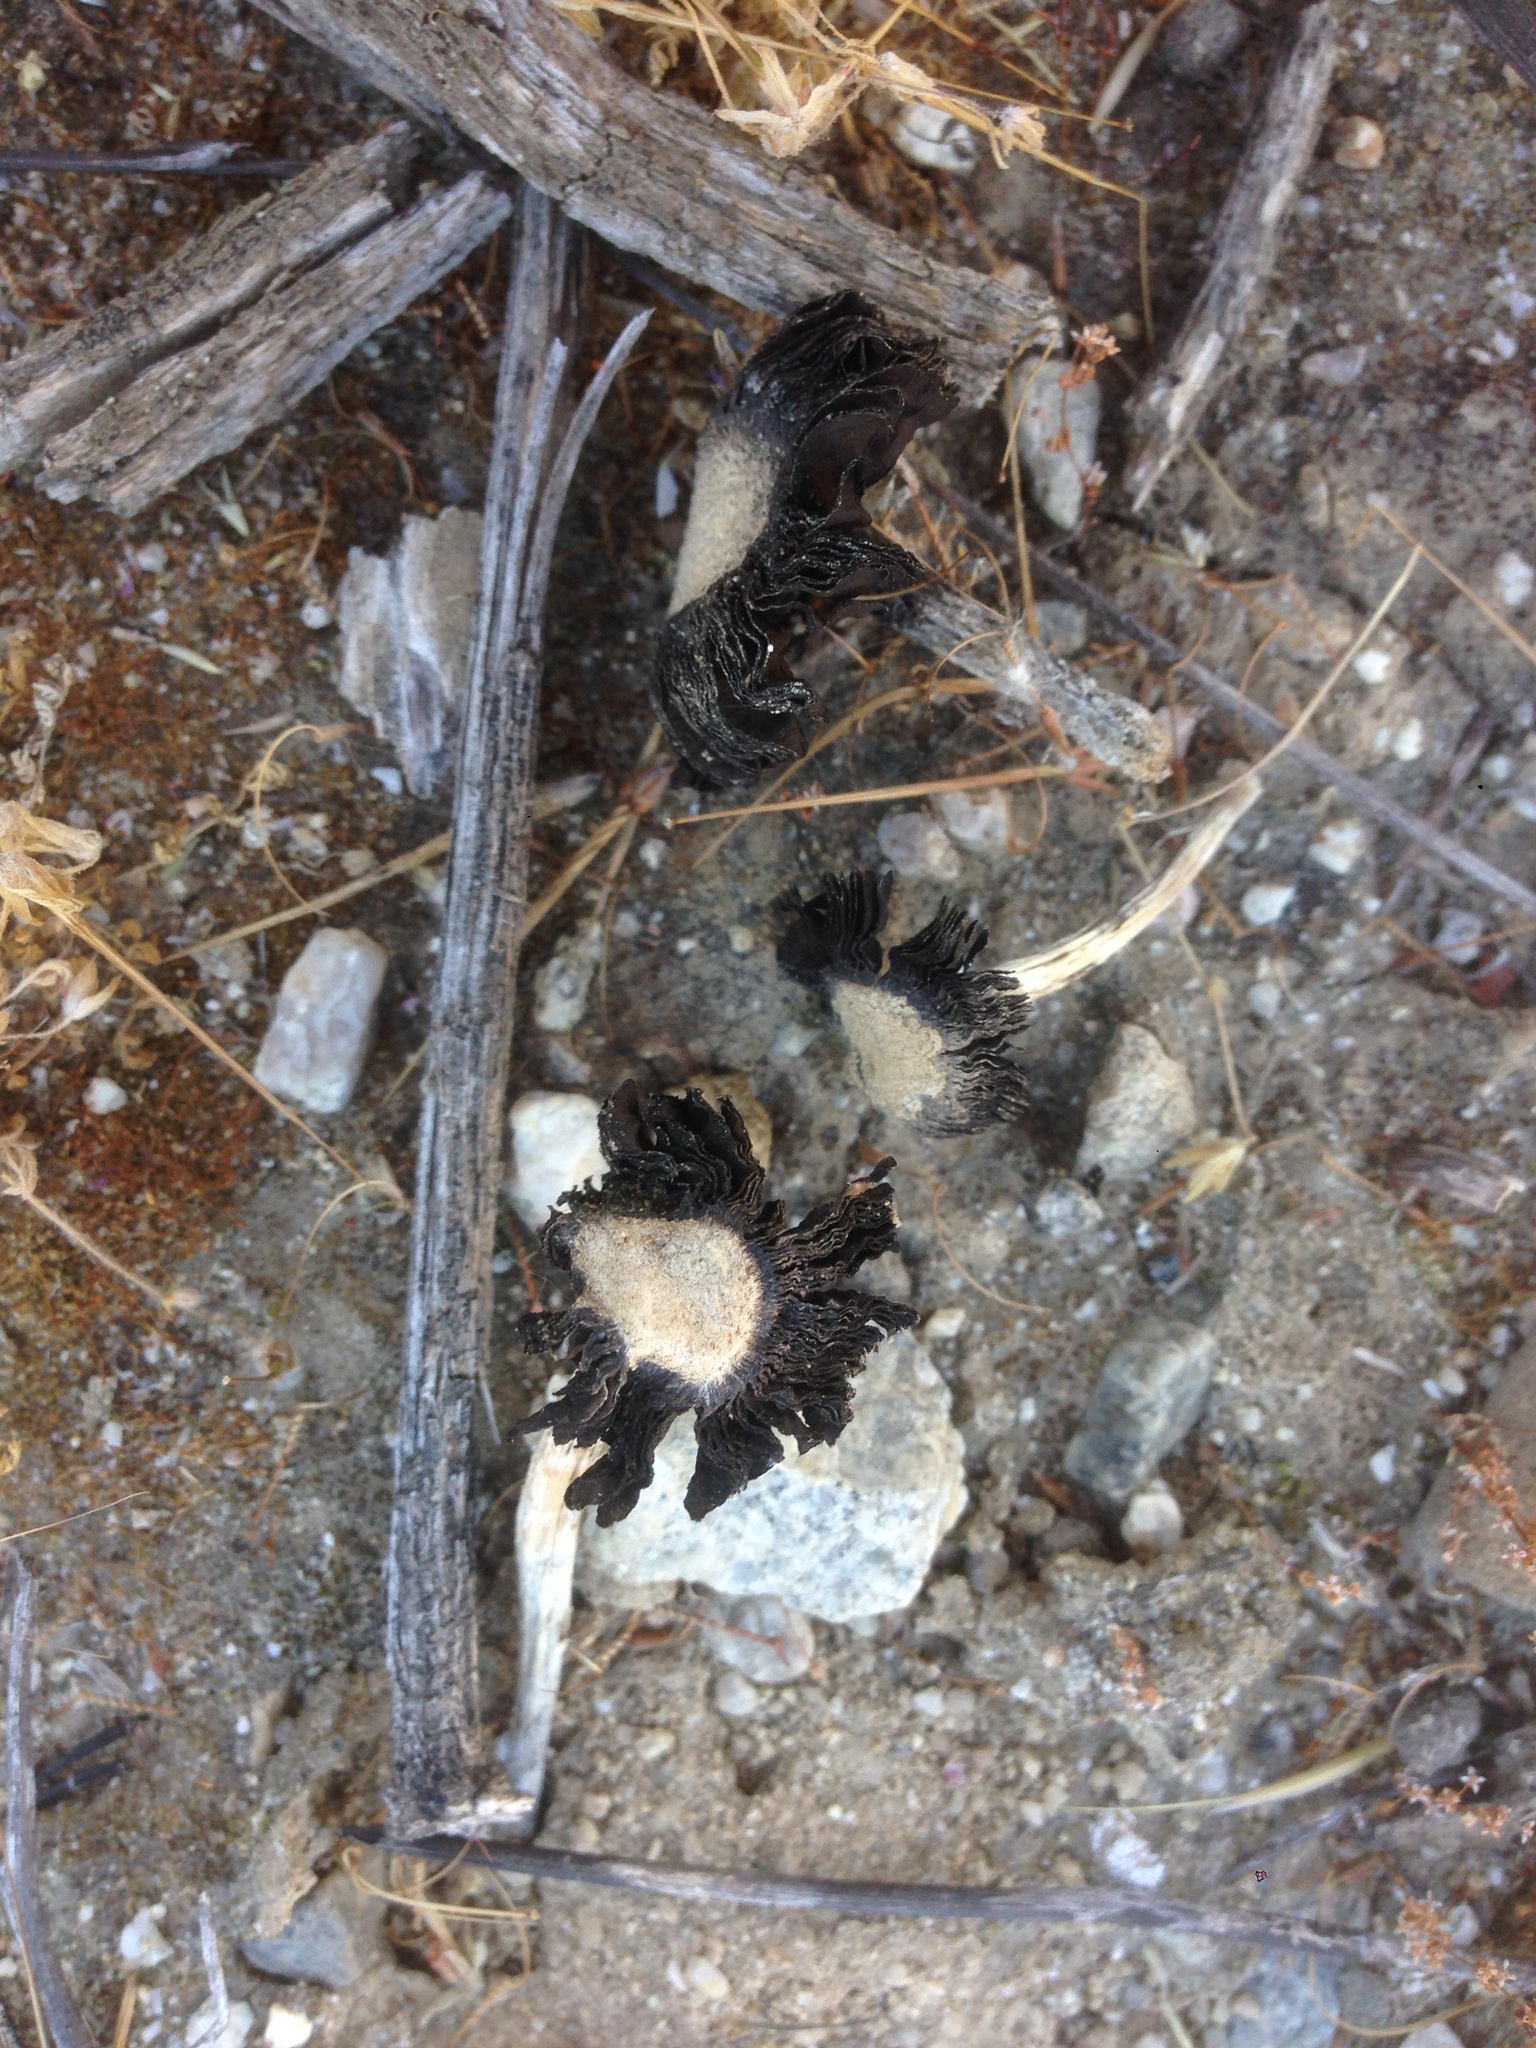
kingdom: Fungi
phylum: Basidiomycota
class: Agaricomycetes
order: Agaricales
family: Agaricaceae
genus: Montagnea
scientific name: Montagnea arenaria
